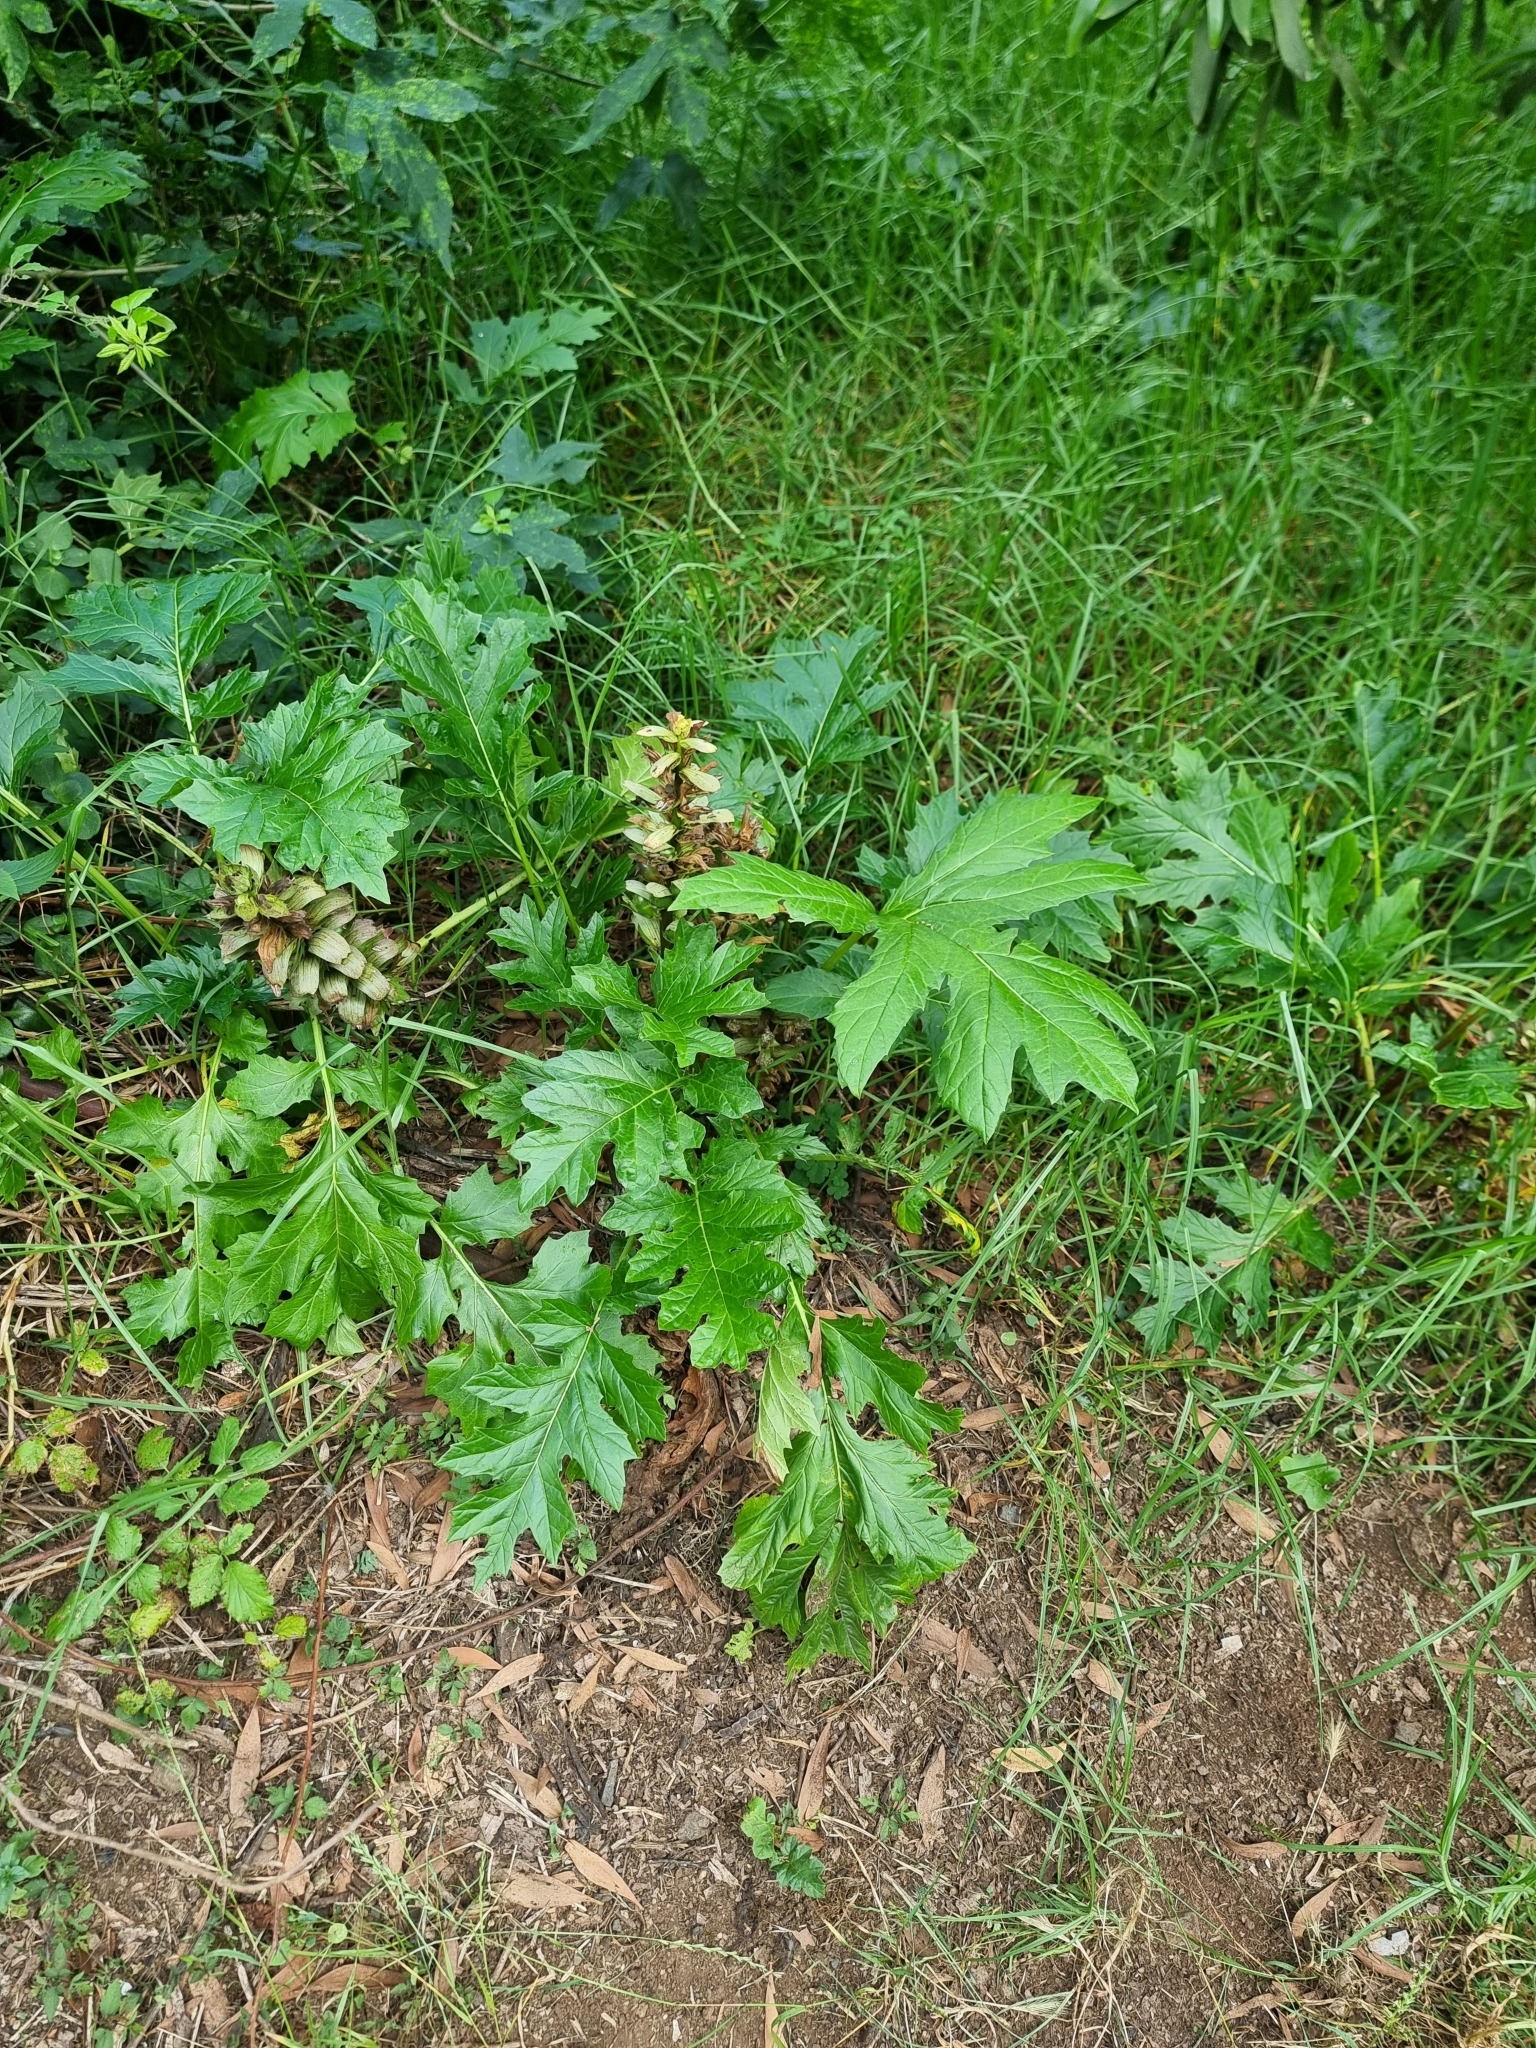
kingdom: Plantae
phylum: Tracheophyta
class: Magnoliopsida
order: Lamiales
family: Acanthaceae
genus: Acanthus
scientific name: Acanthus mollis
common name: Bear's-breech
